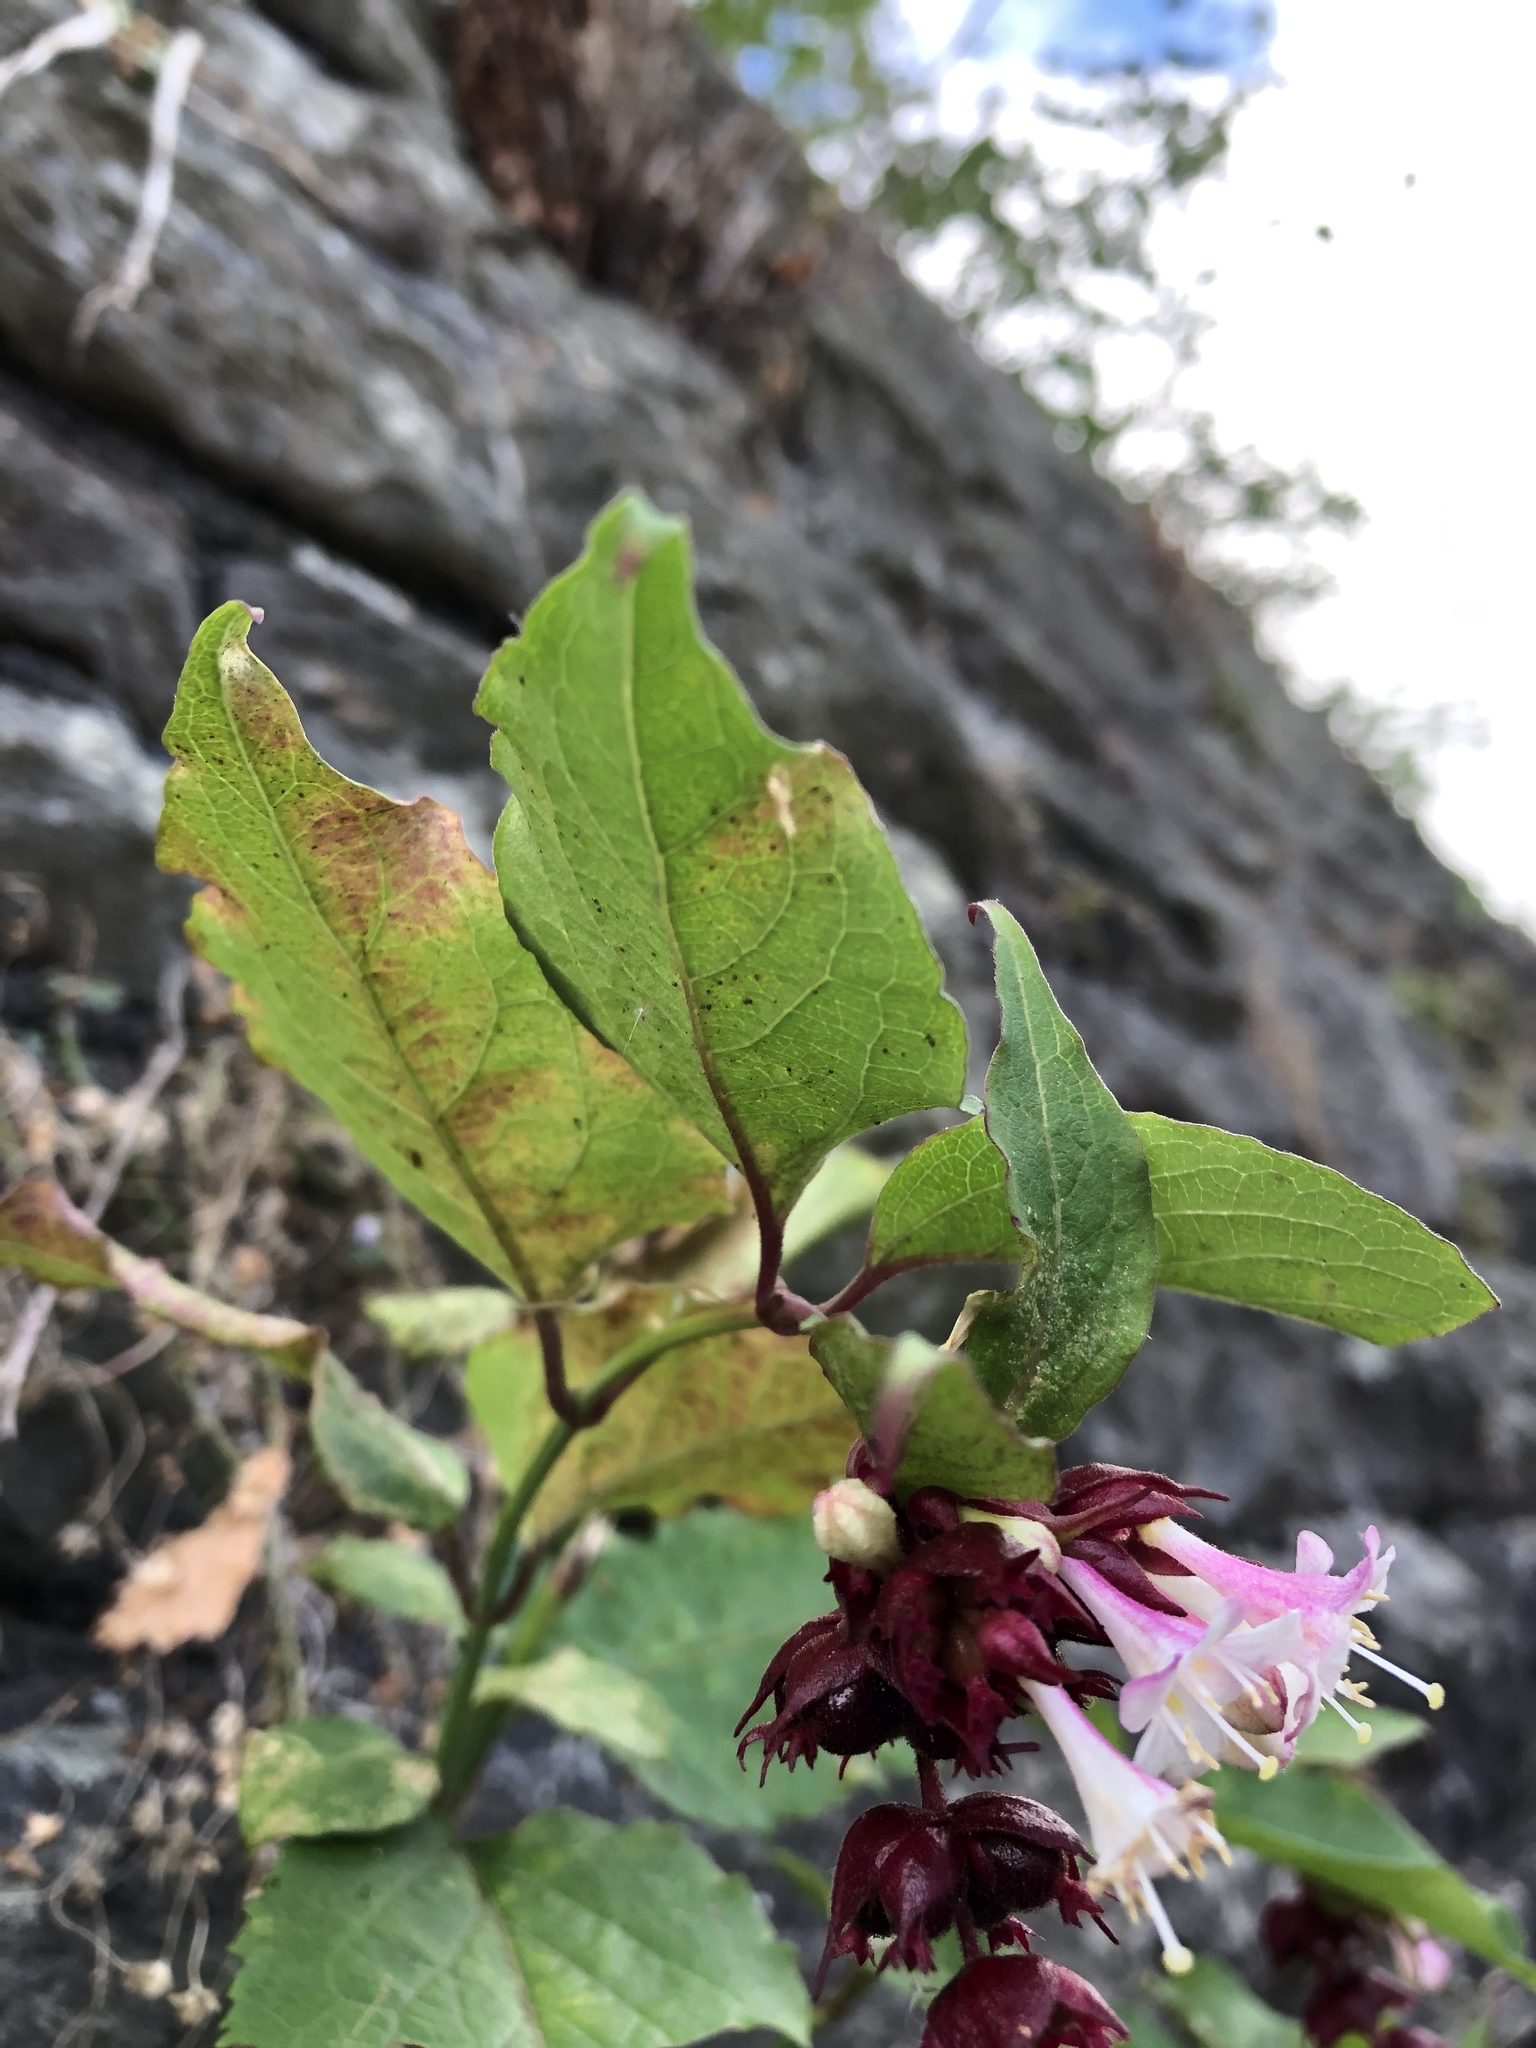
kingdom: Plantae
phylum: Tracheophyta
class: Magnoliopsida
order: Dipsacales
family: Caprifoliaceae
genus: Leycesteria
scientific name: Leycesteria formosa
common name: Himalayan honeysuckle
